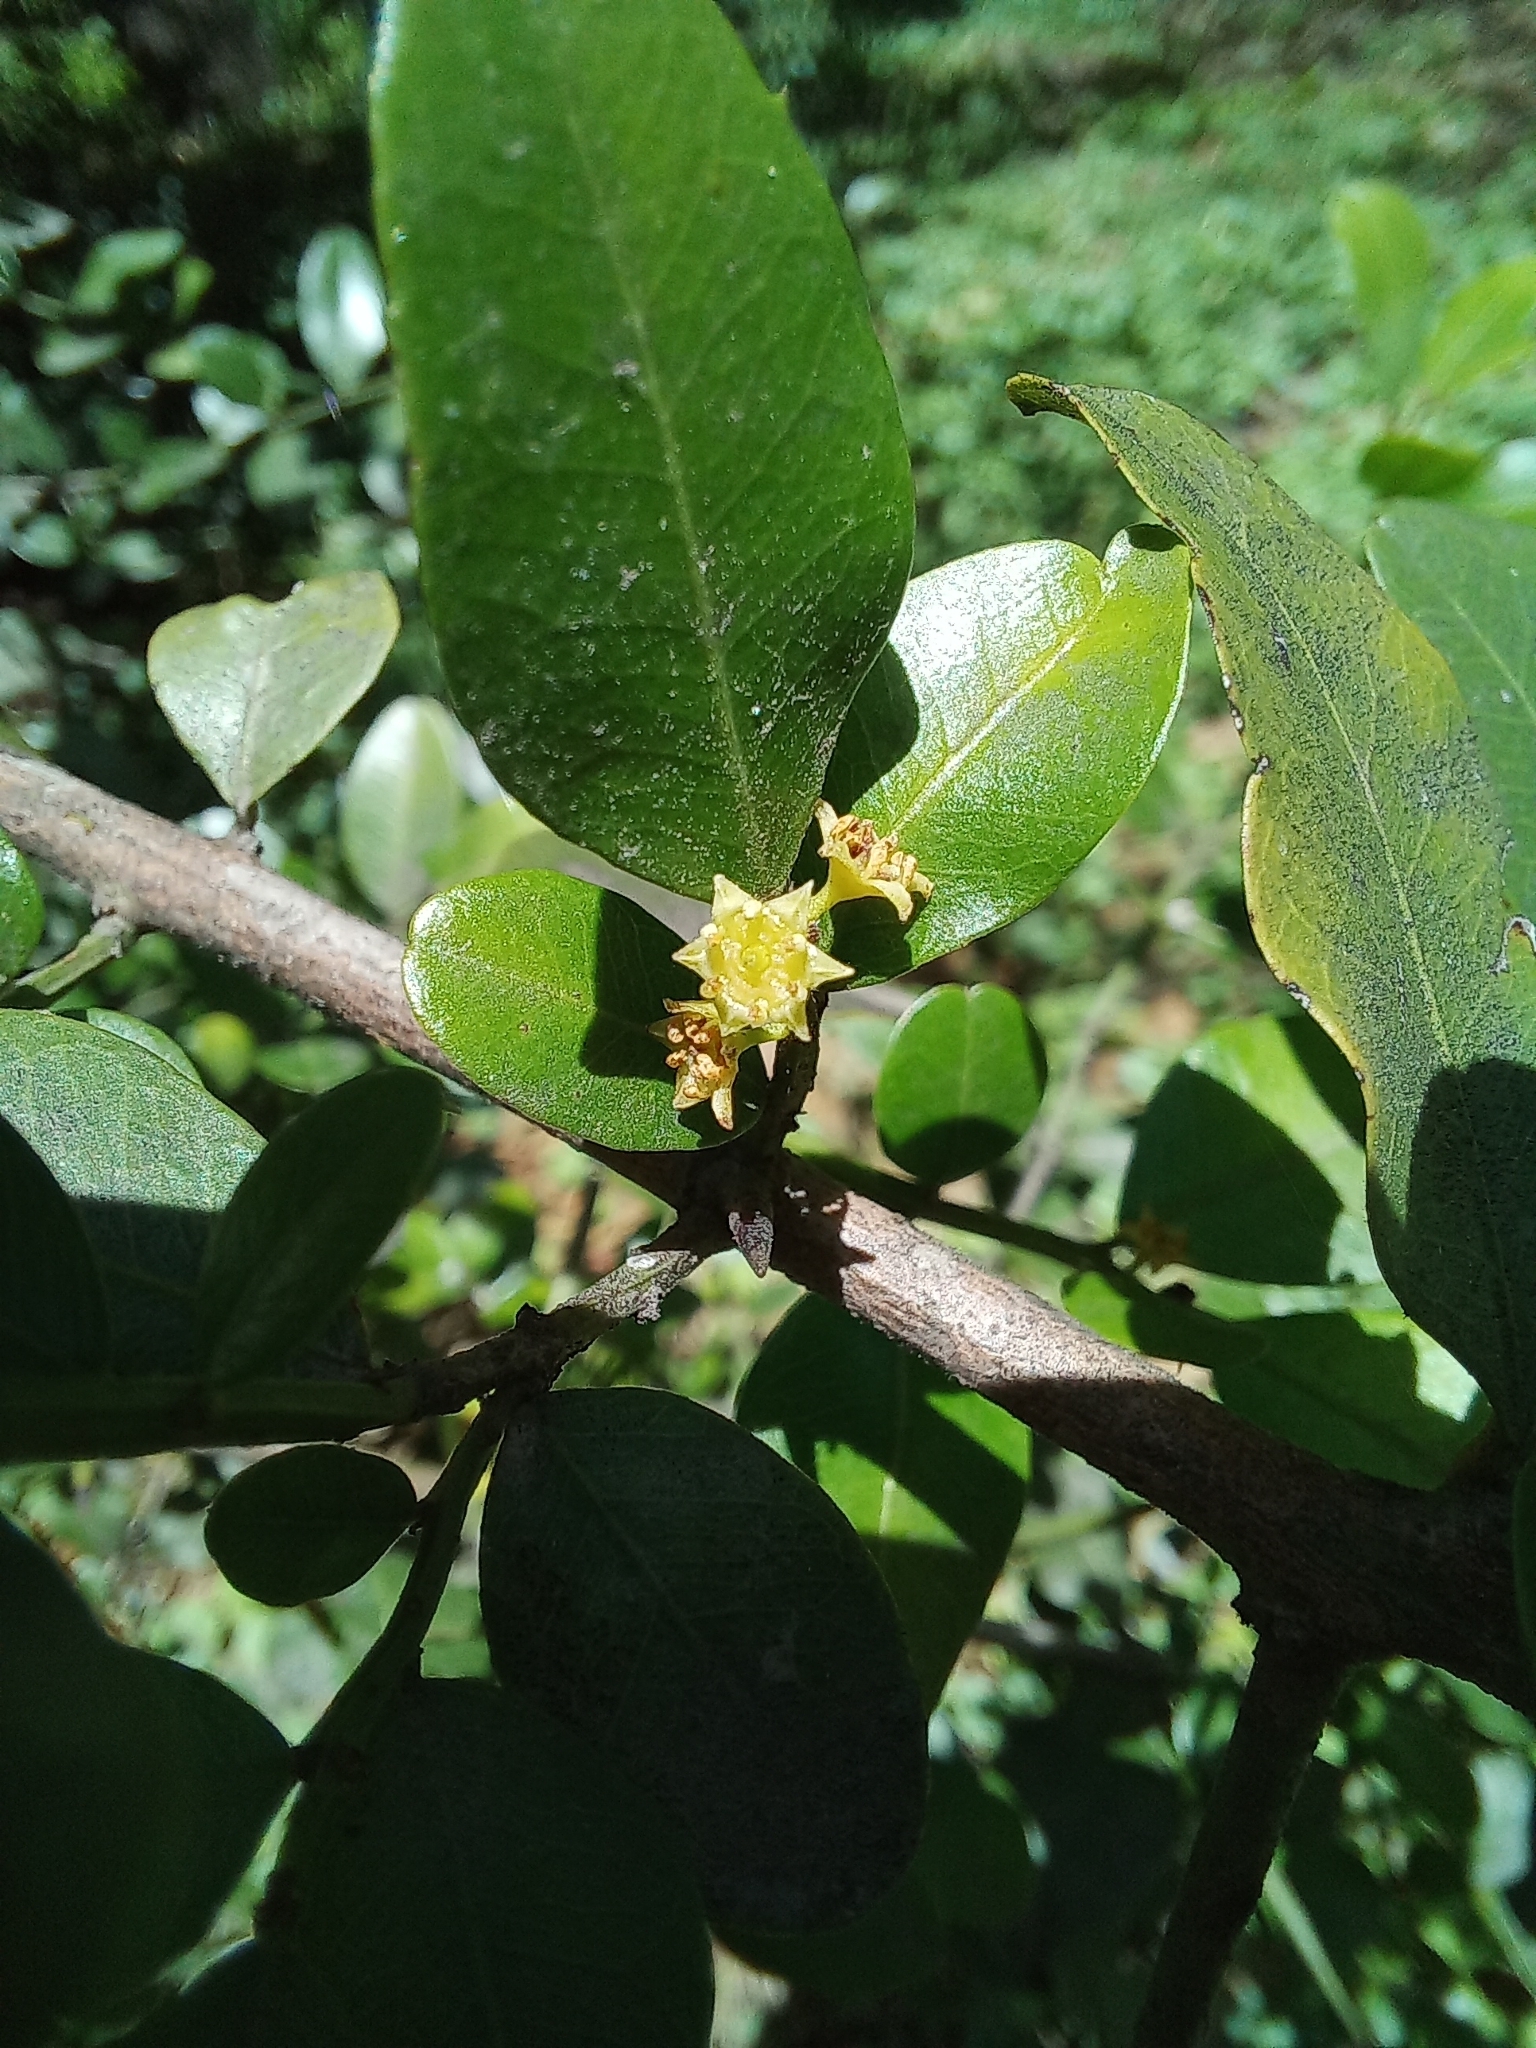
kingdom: Plantae
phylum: Tracheophyta
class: Magnoliopsida
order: Rosales
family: Rhamnaceae
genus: Scutia
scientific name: Scutia buxifolia
